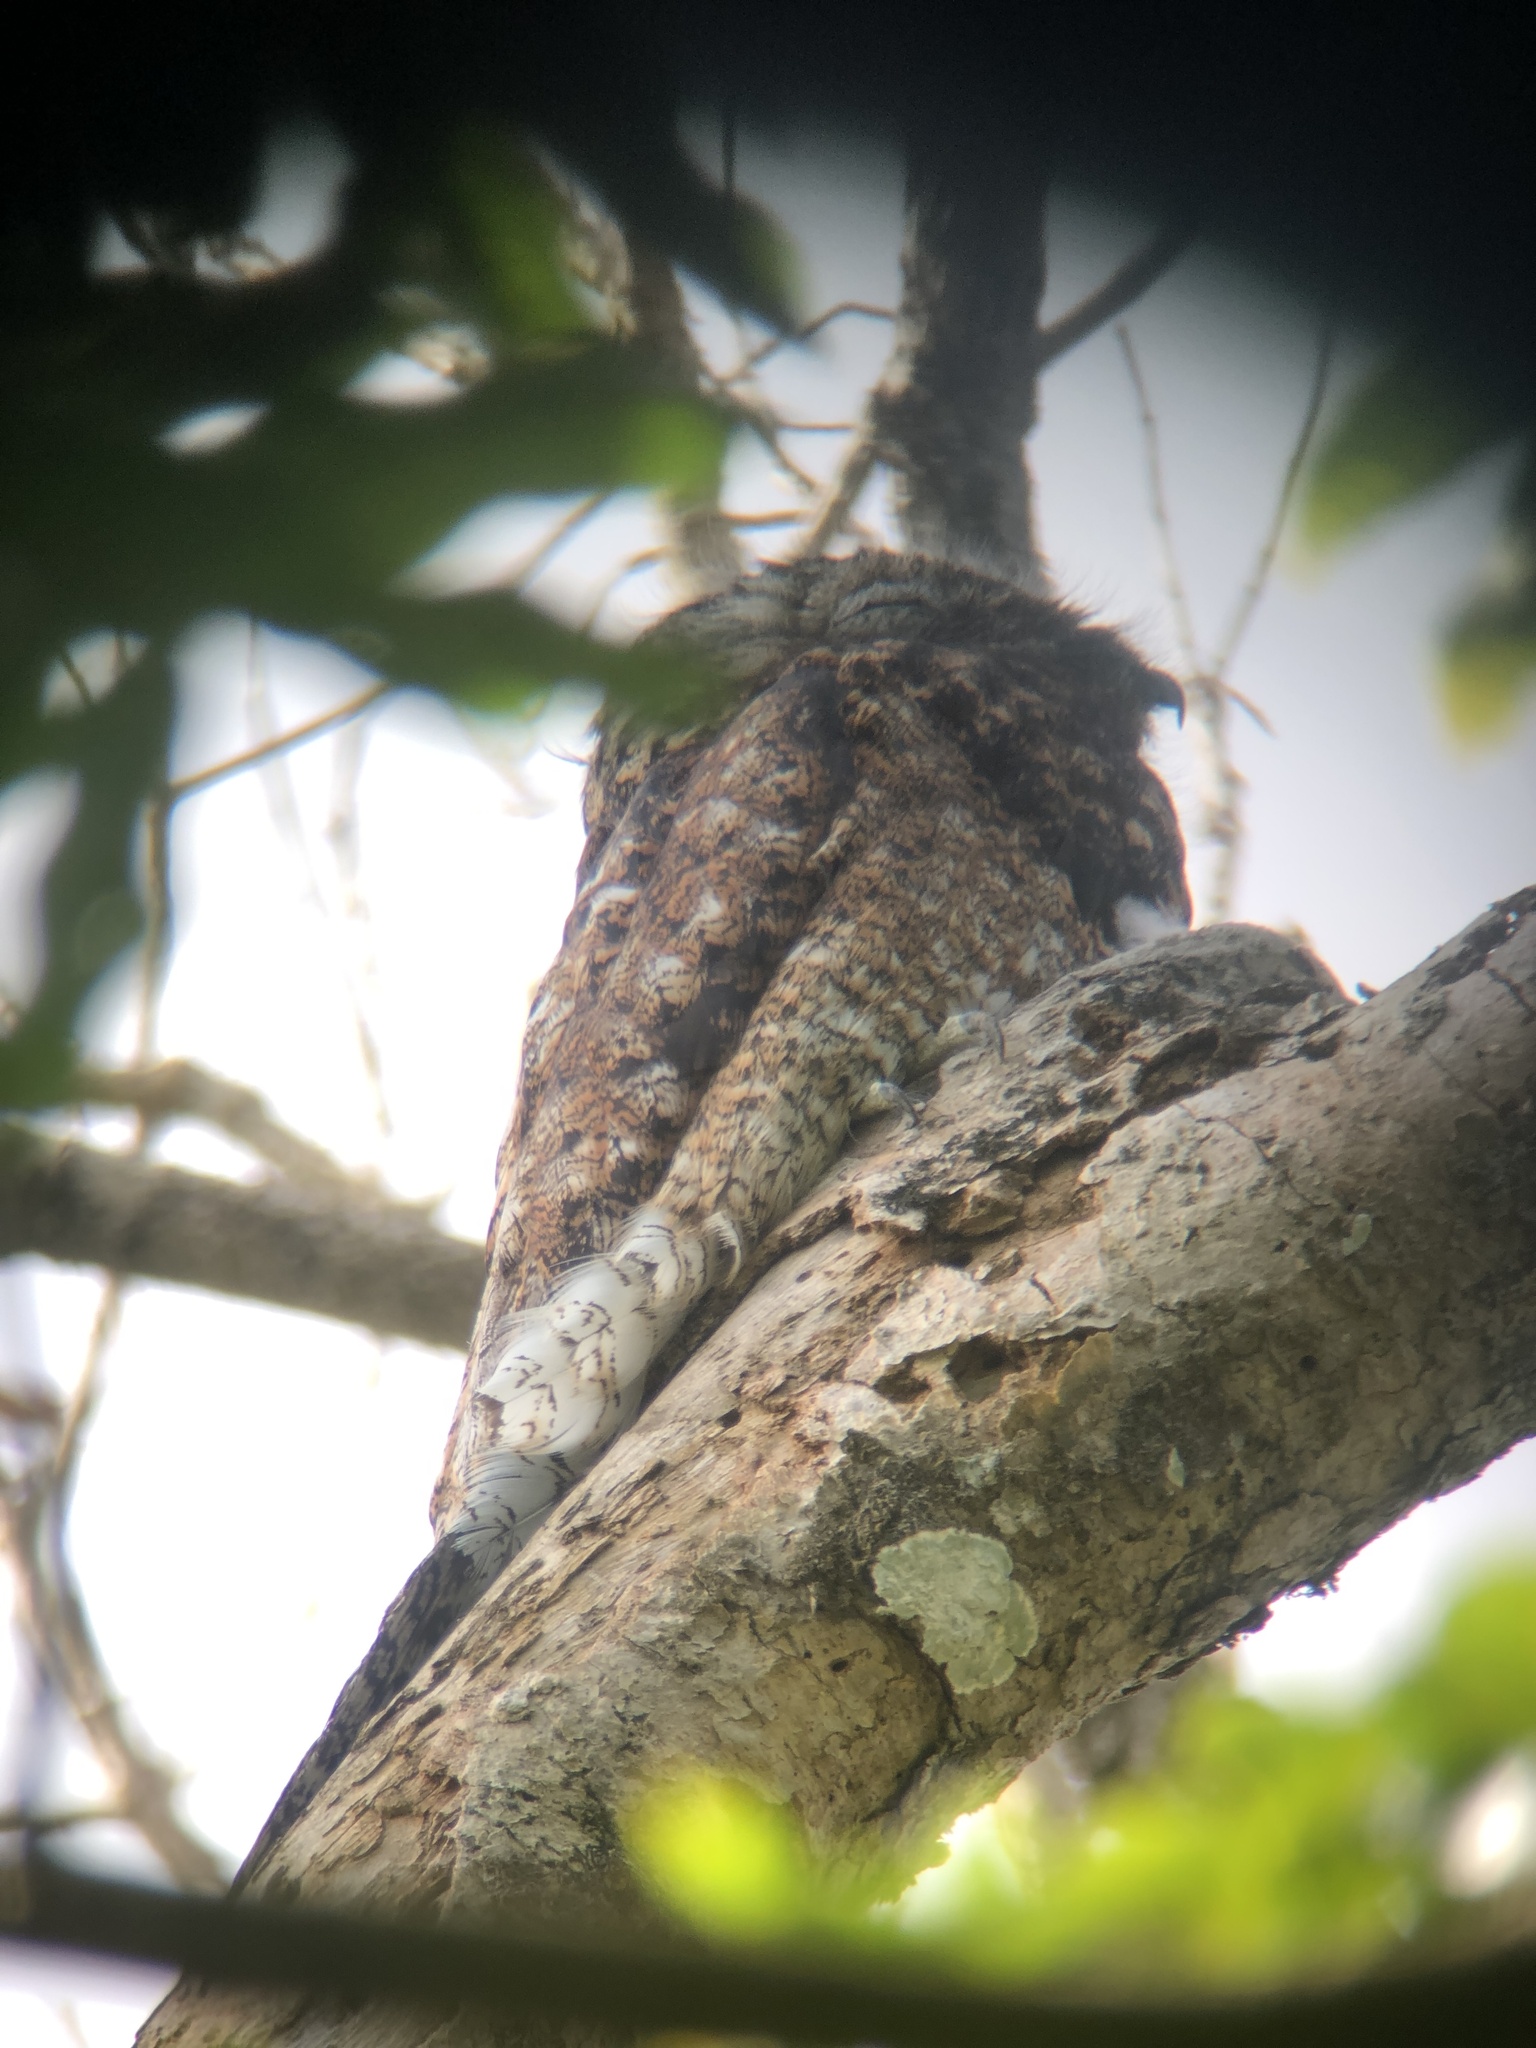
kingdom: Animalia
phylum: Chordata
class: Aves
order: Nyctibiiformes
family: Nyctibiidae
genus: Nyctibius
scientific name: Nyctibius grandis
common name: Great potoo
